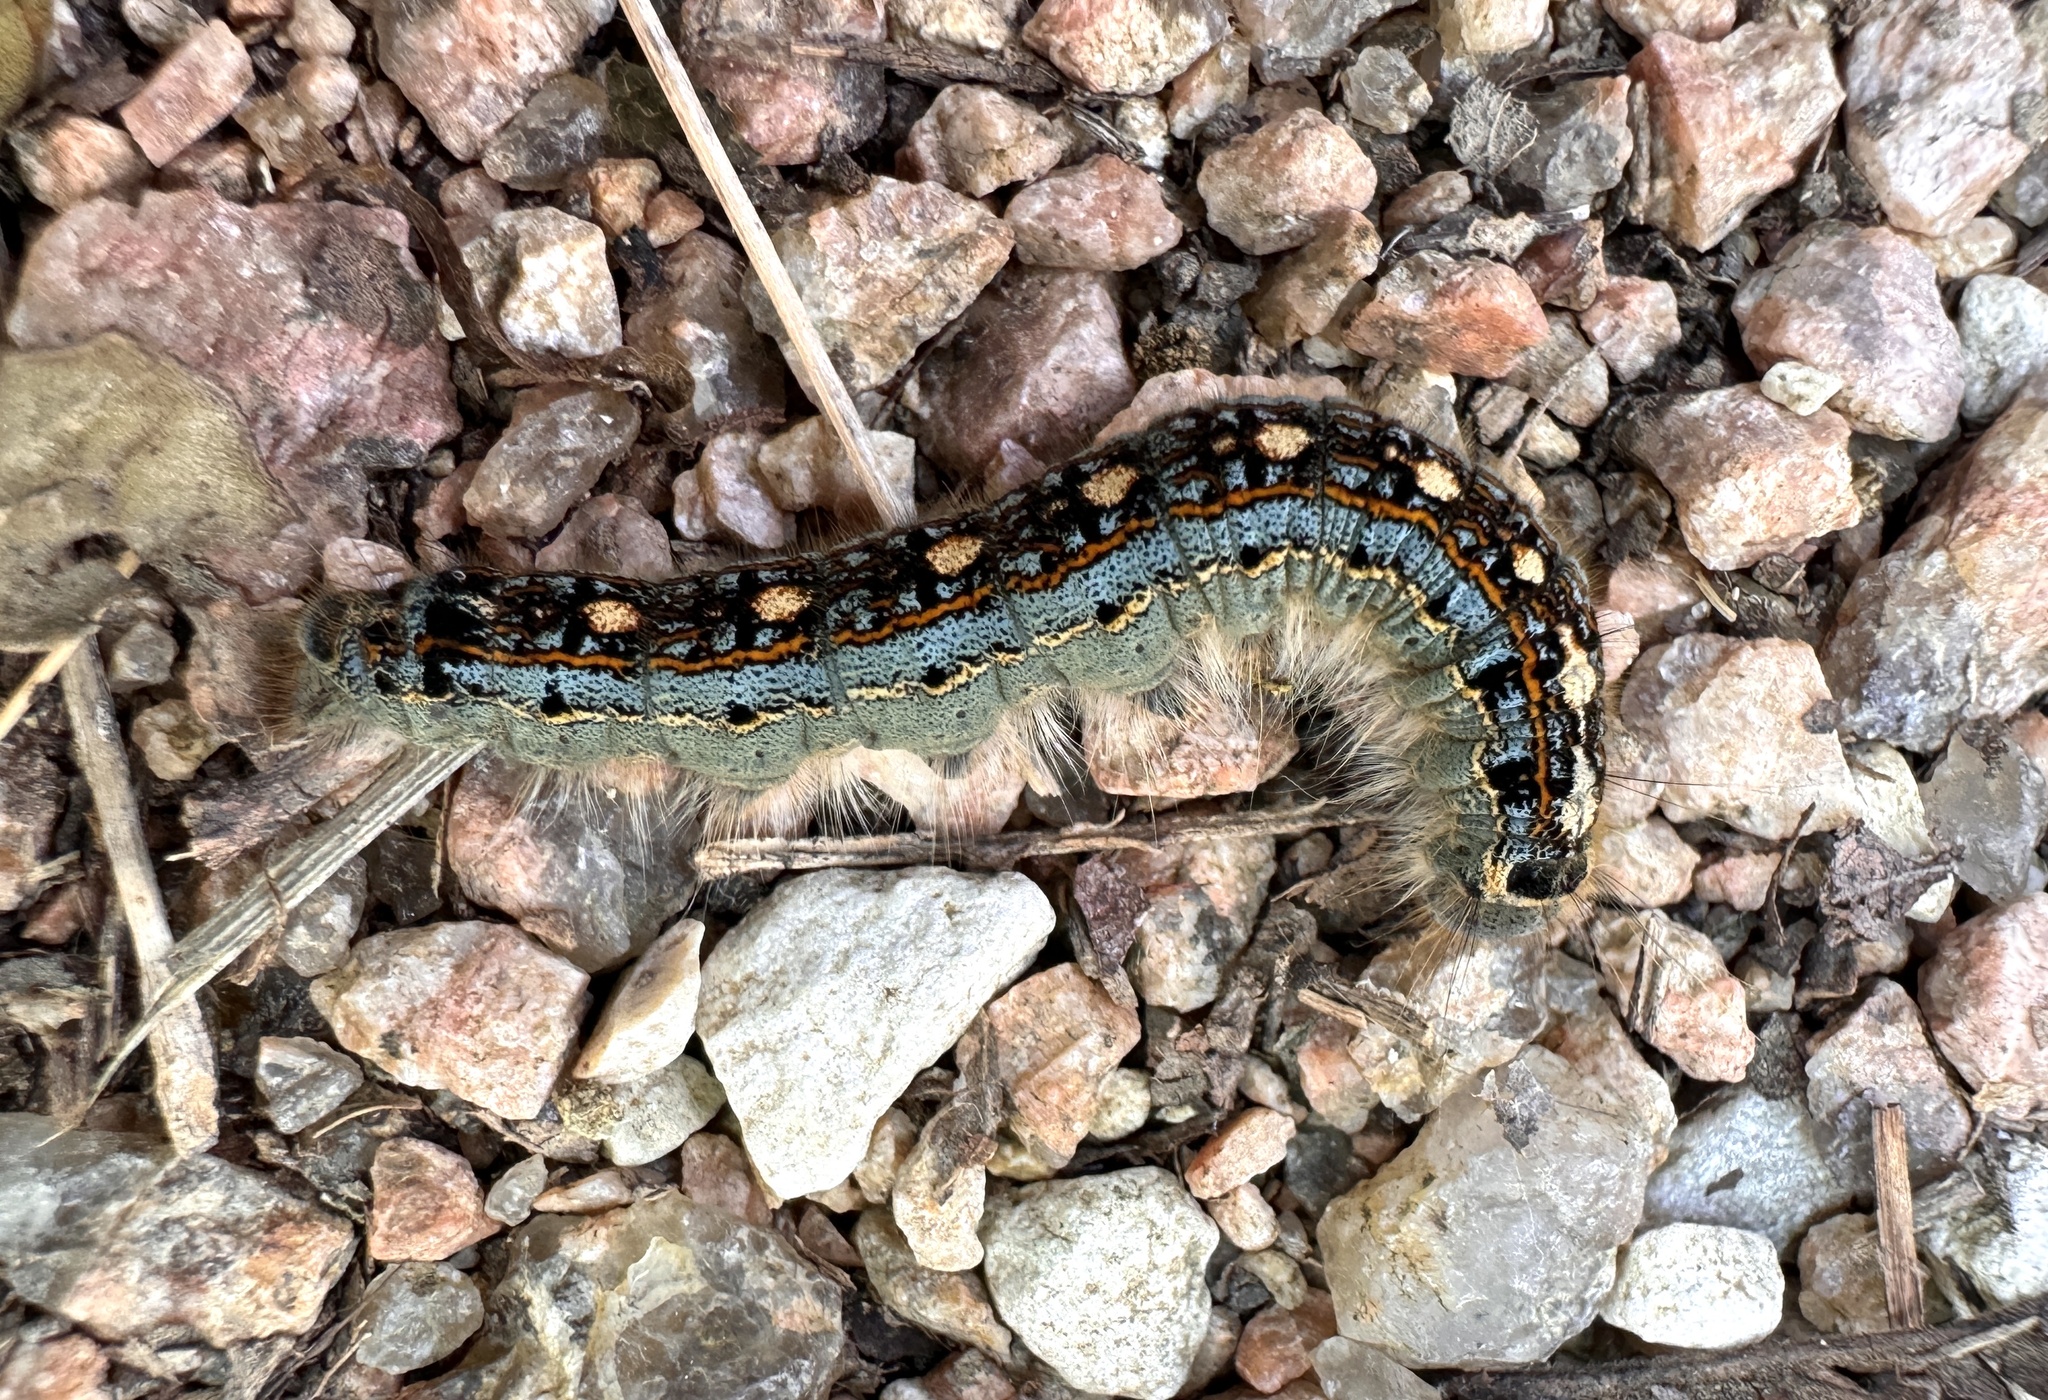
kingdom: Animalia
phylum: Arthropoda
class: Insecta
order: Lepidoptera
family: Lasiocampidae
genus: Malacosoma
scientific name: Malacosoma disstria
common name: Forest tent caterpillar
